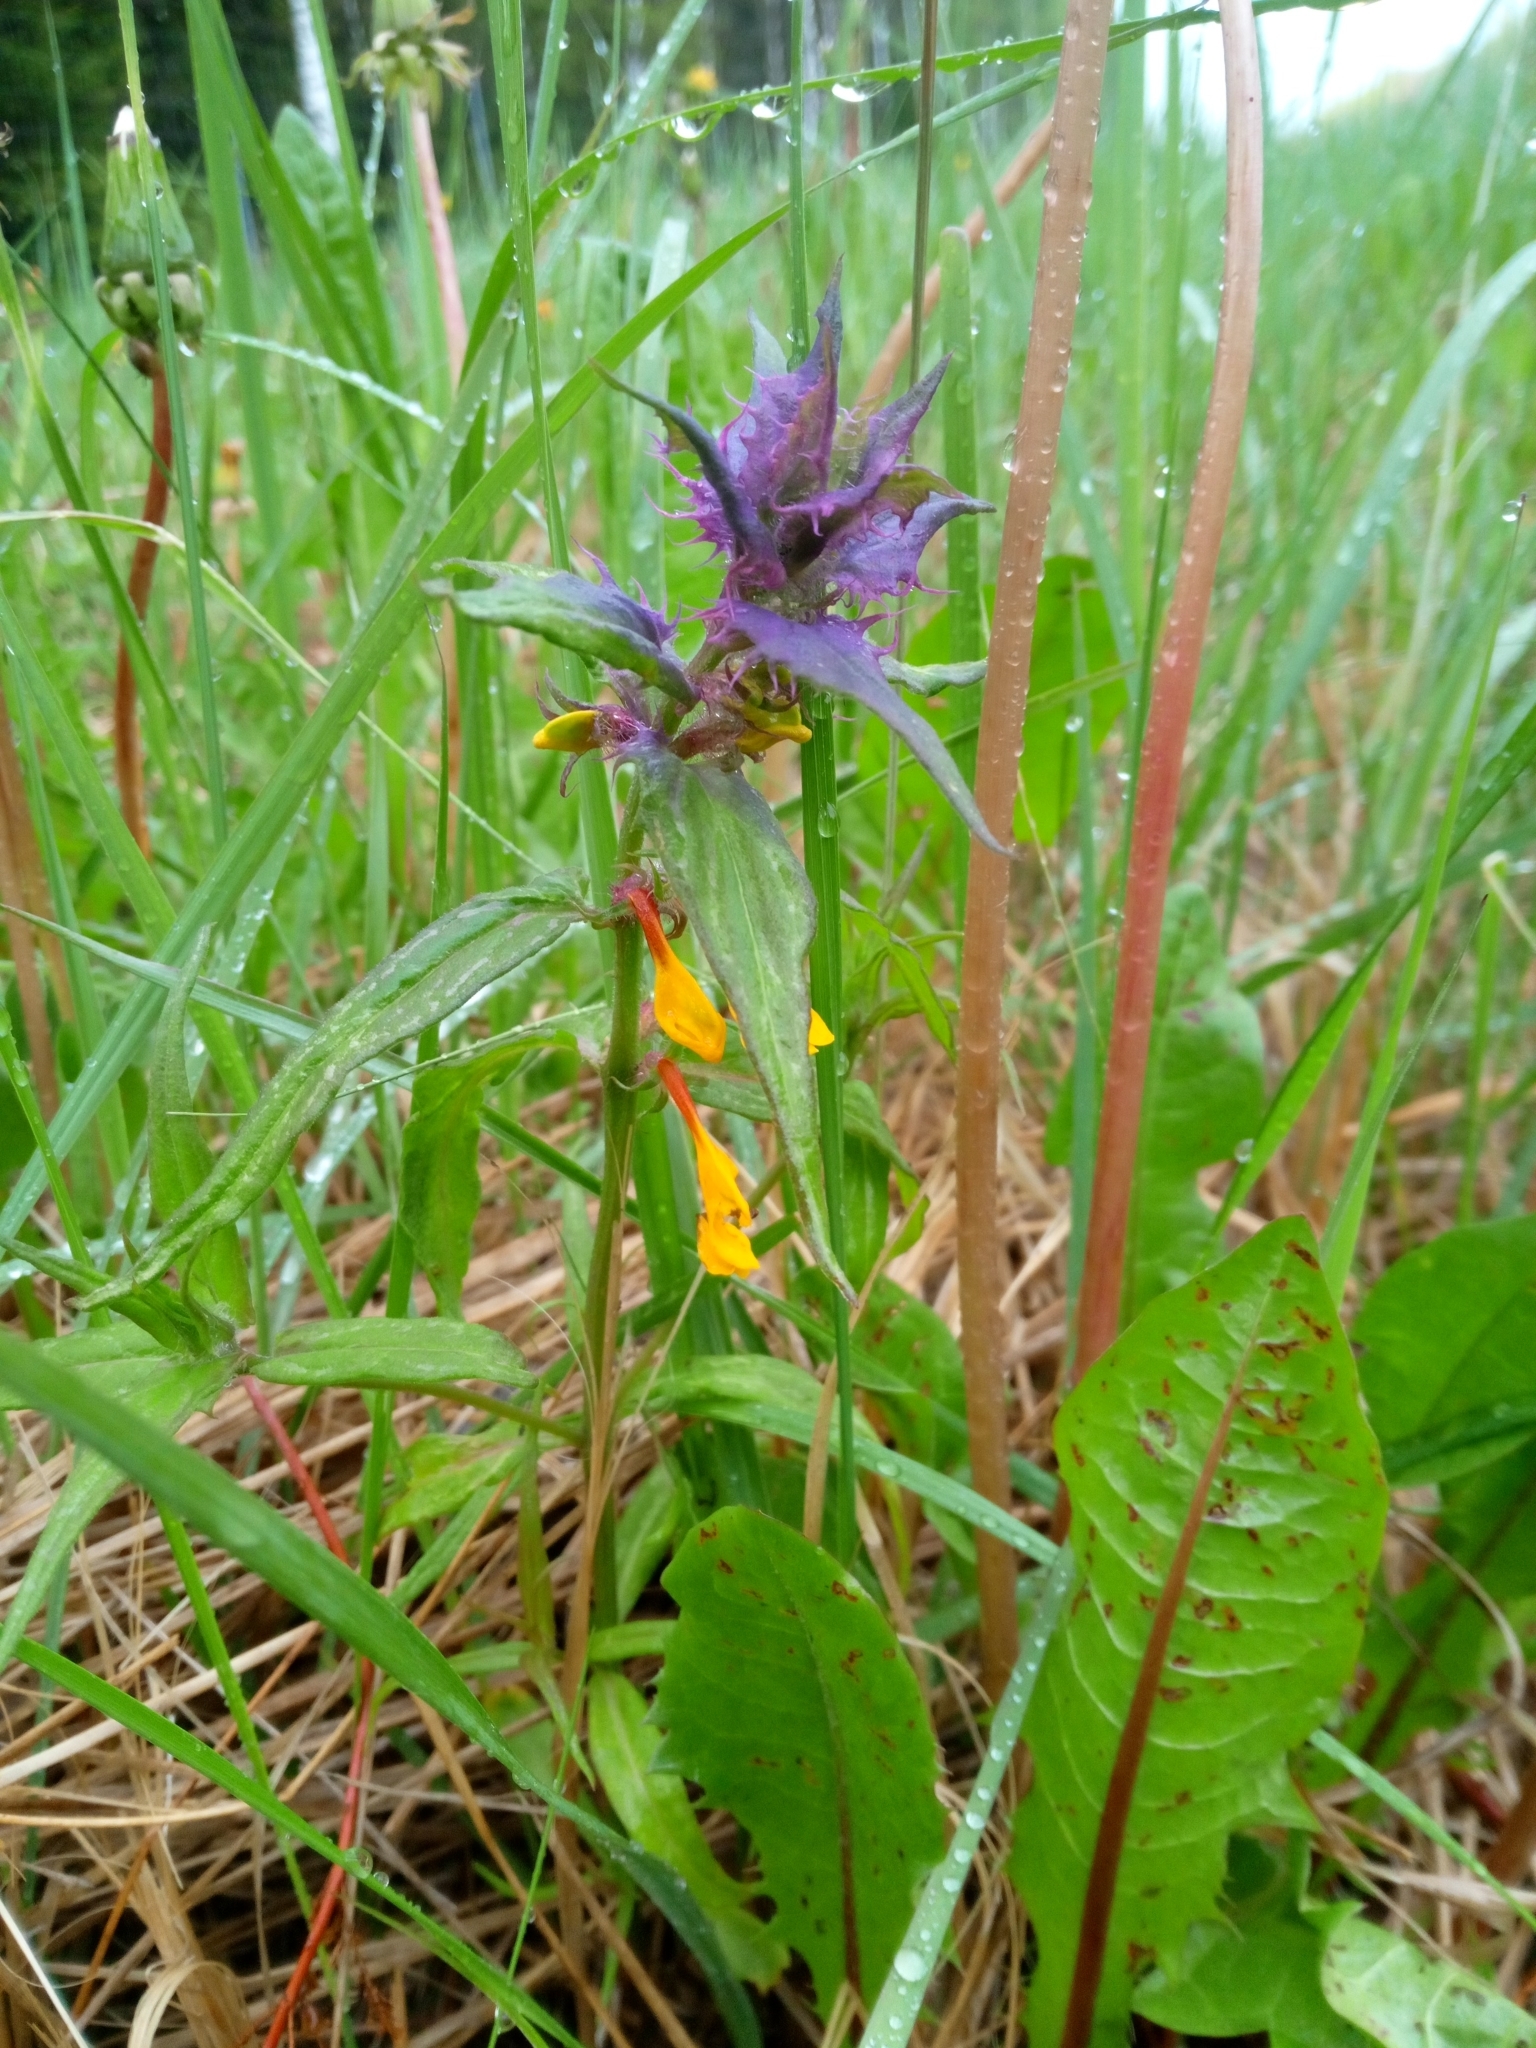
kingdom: Plantae
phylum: Tracheophyta
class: Magnoliopsida
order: Lamiales
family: Orobanchaceae
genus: Melampyrum
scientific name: Melampyrum nemorosum
